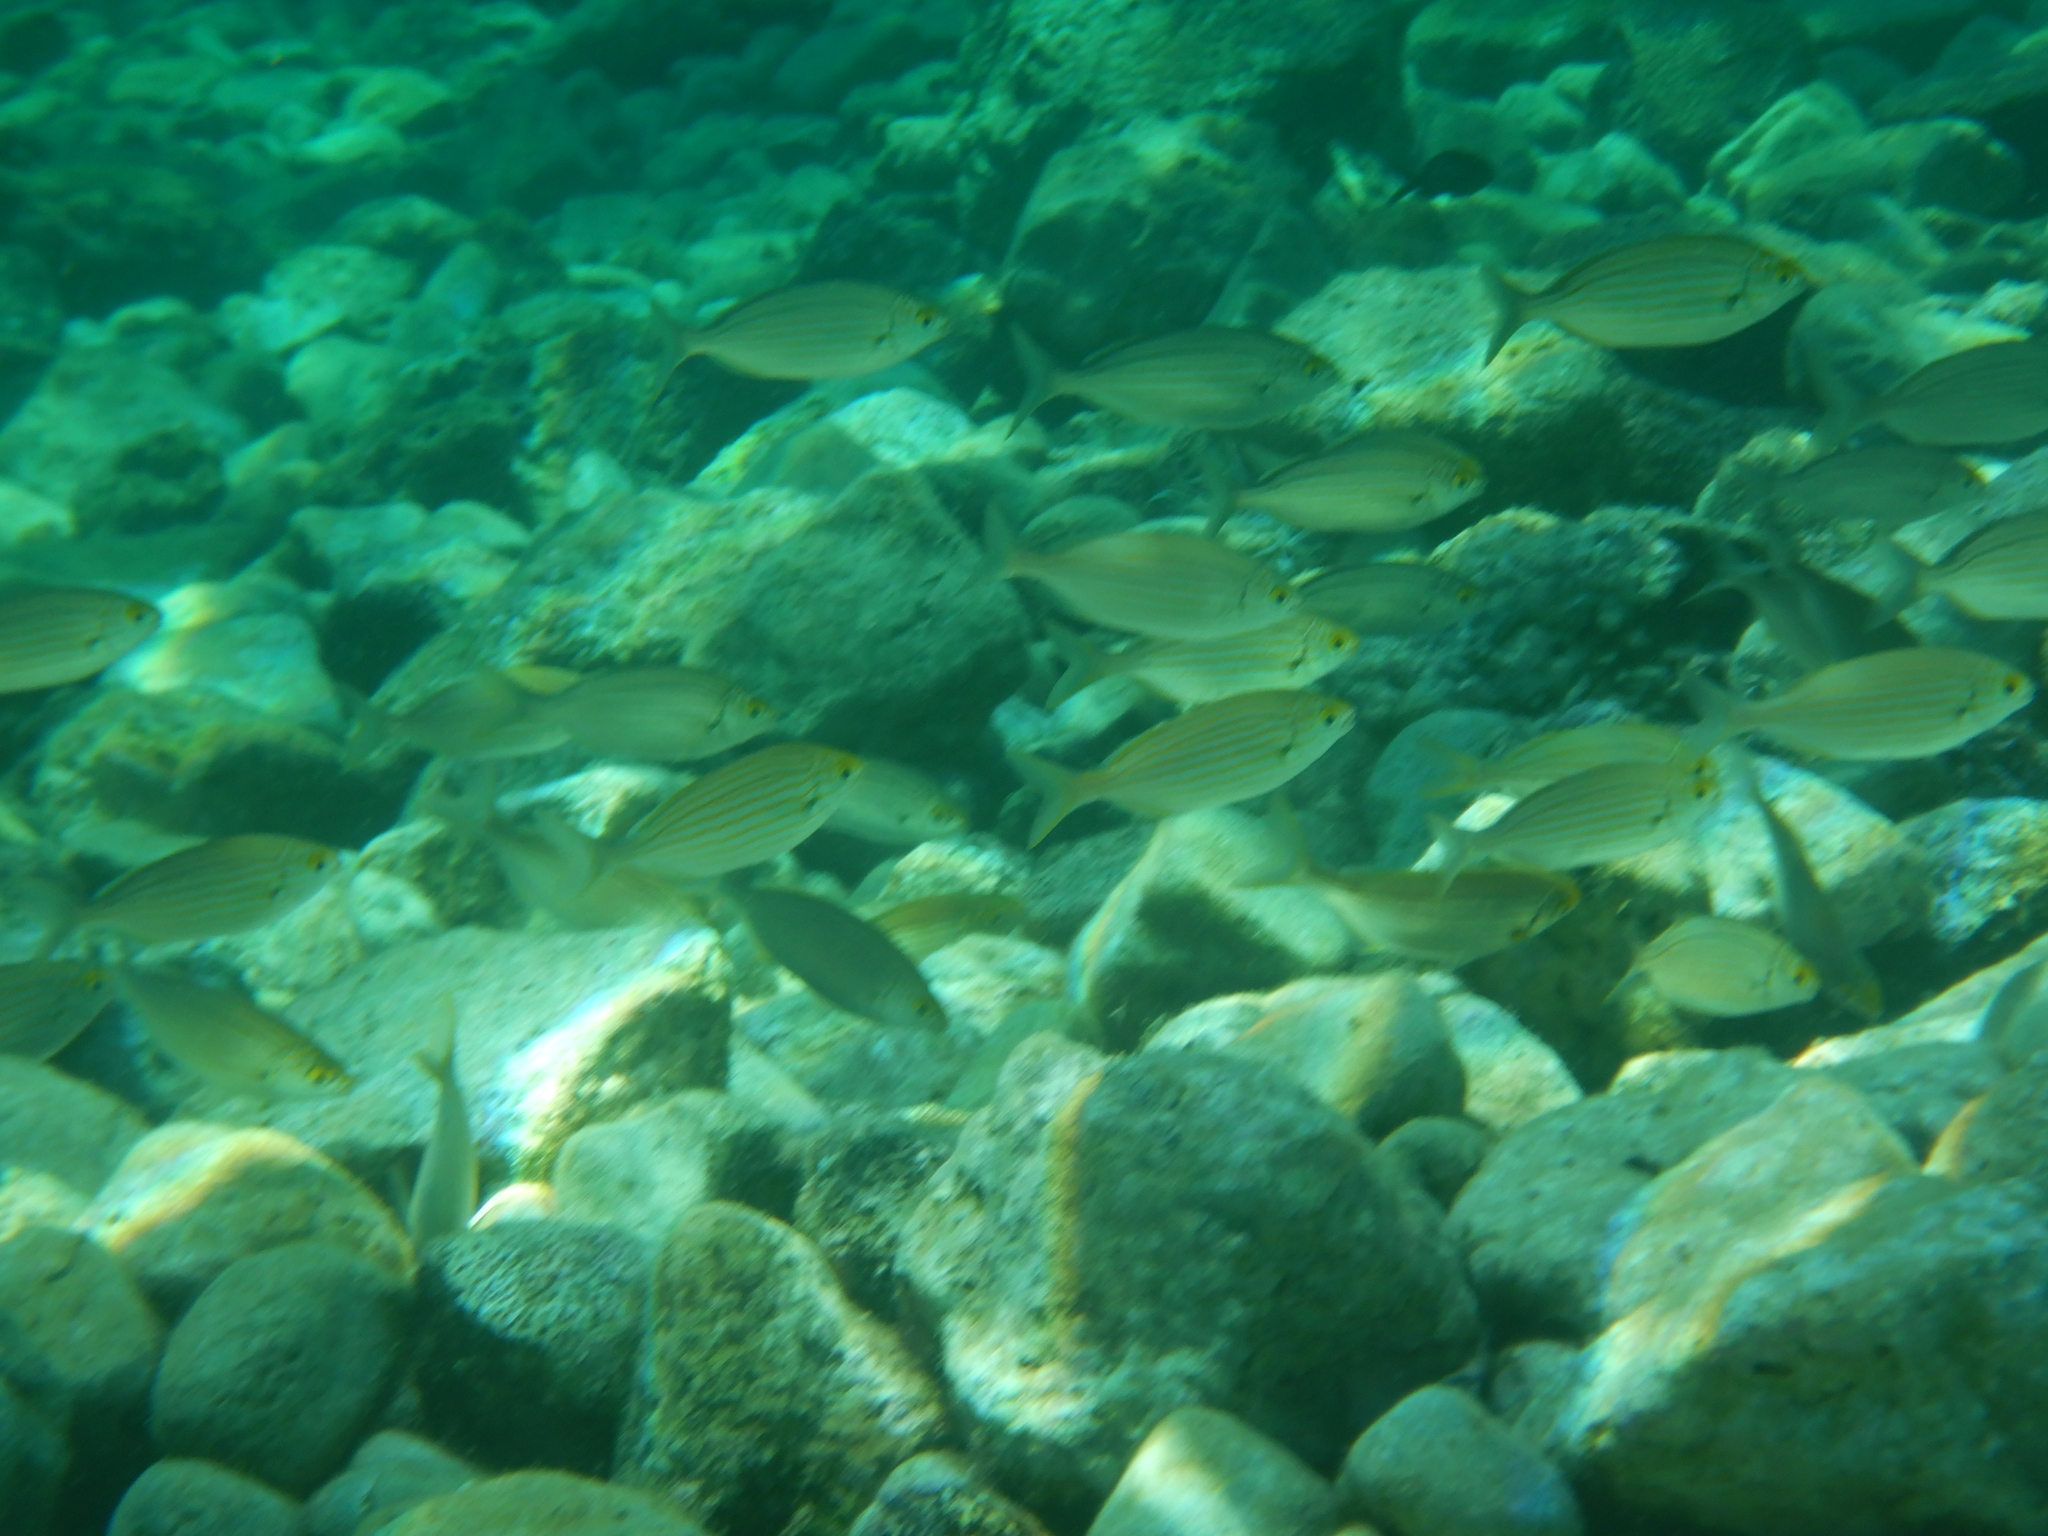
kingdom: Animalia
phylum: Chordata
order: Perciformes
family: Sparidae
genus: Sarpa
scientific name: Sarpa salpa
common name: Salema
